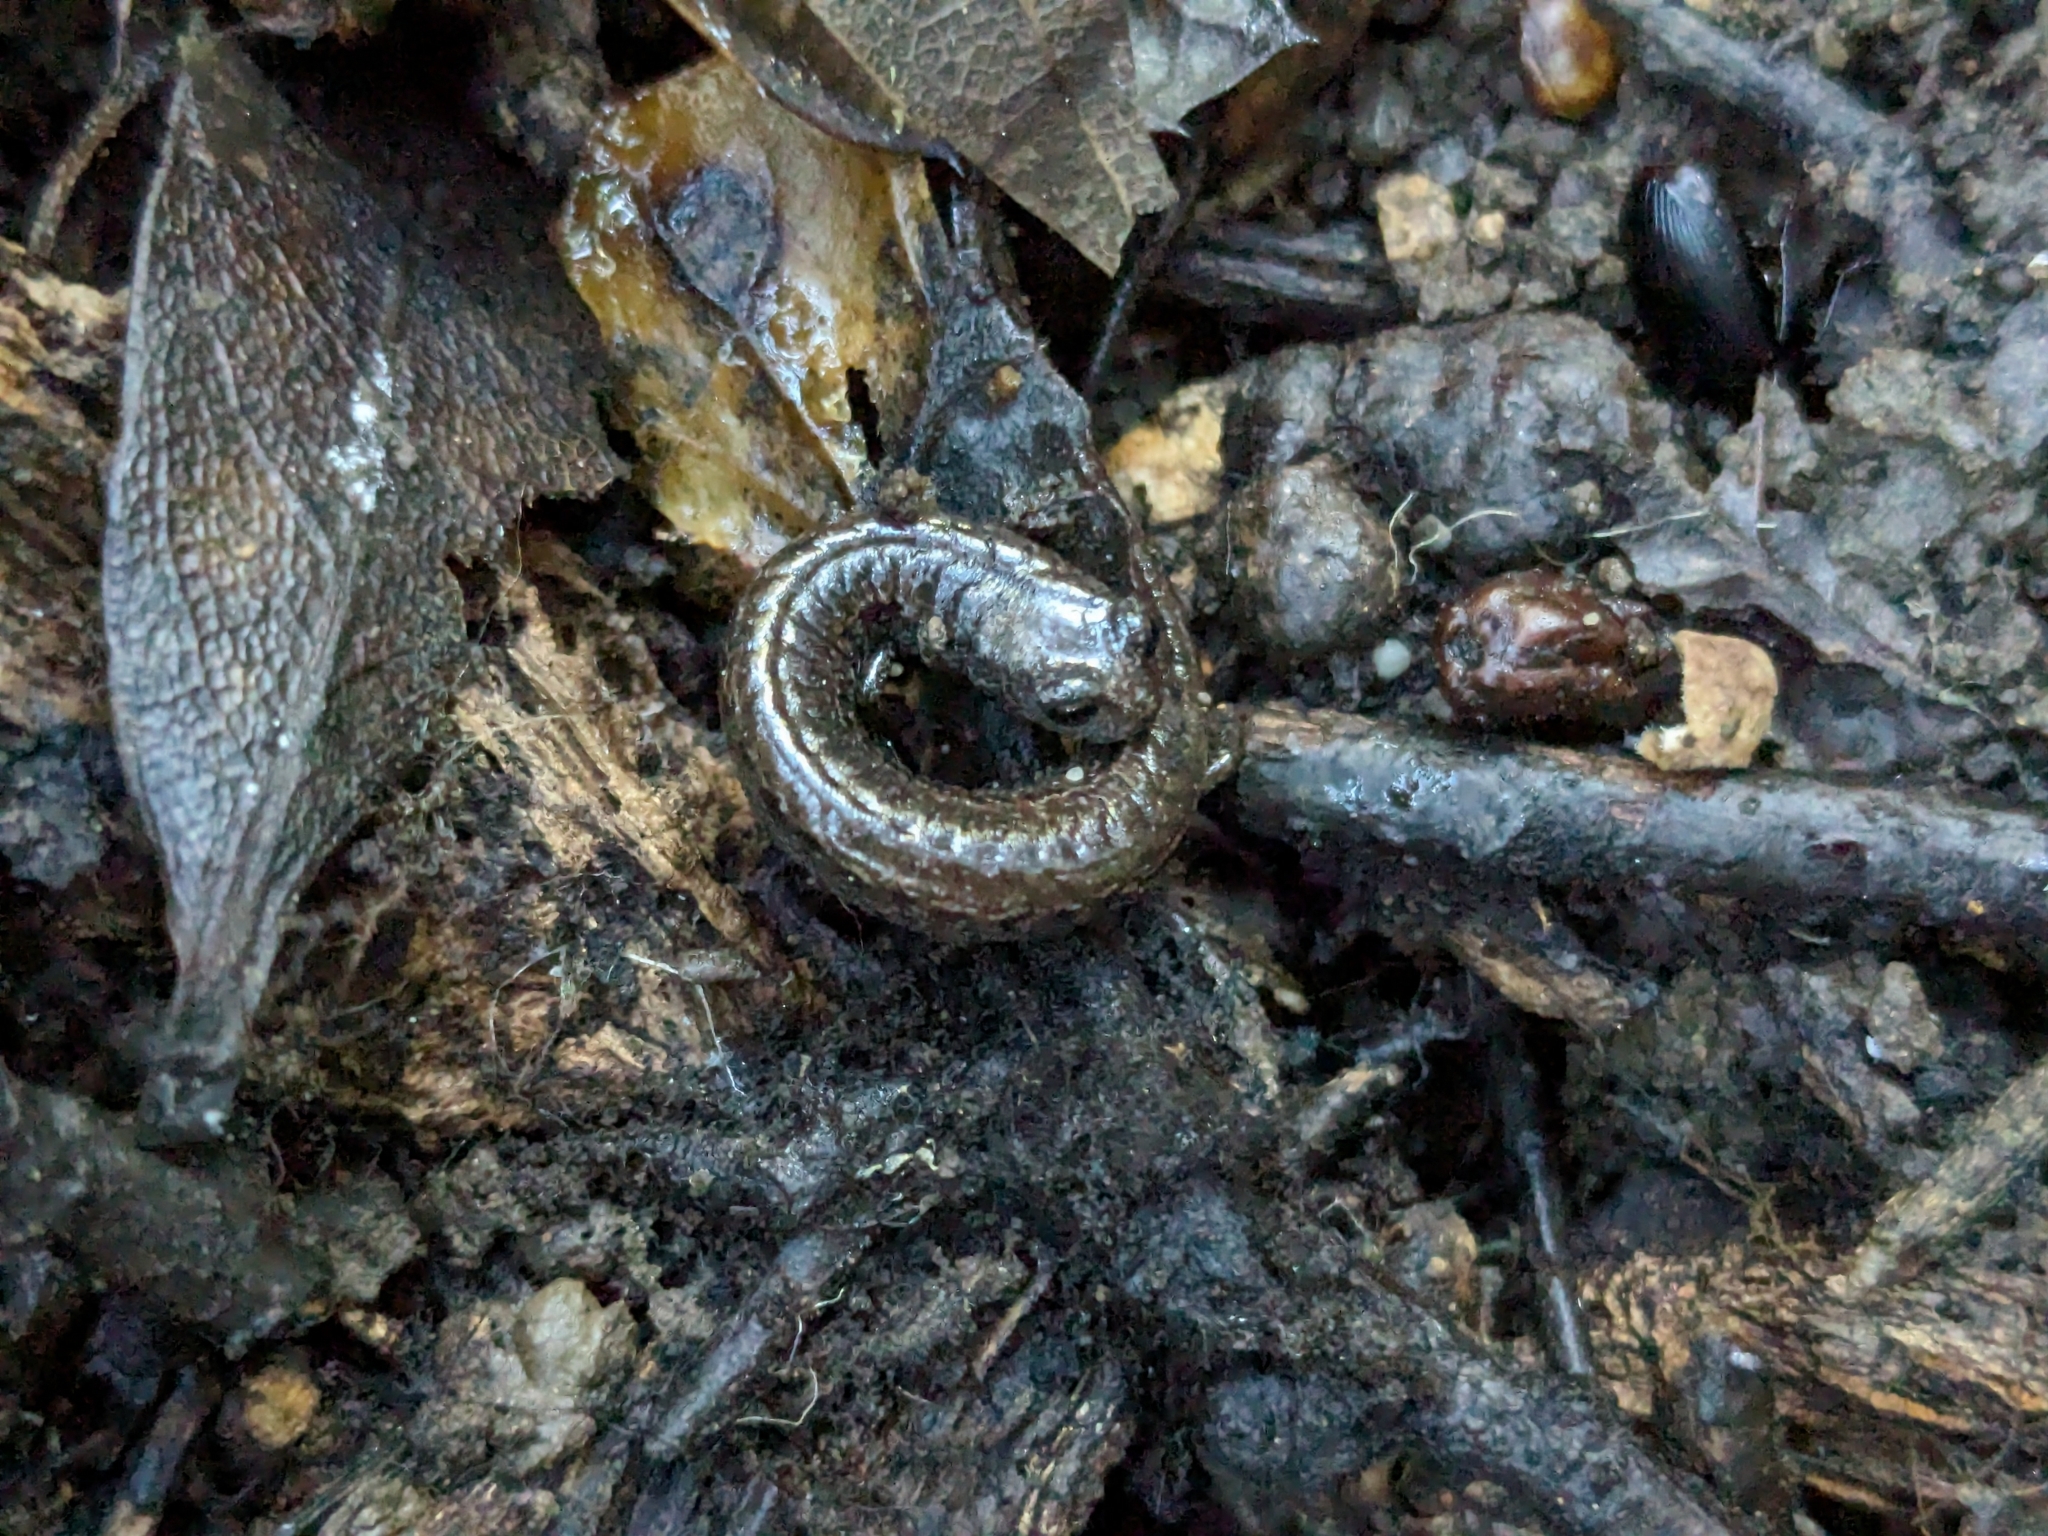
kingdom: Animalia
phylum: Chordata
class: Amphibia
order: Caudata
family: Plethodontidae
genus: Batrachoseps
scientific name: Batrachoseps attenuatus
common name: California slender salamander
